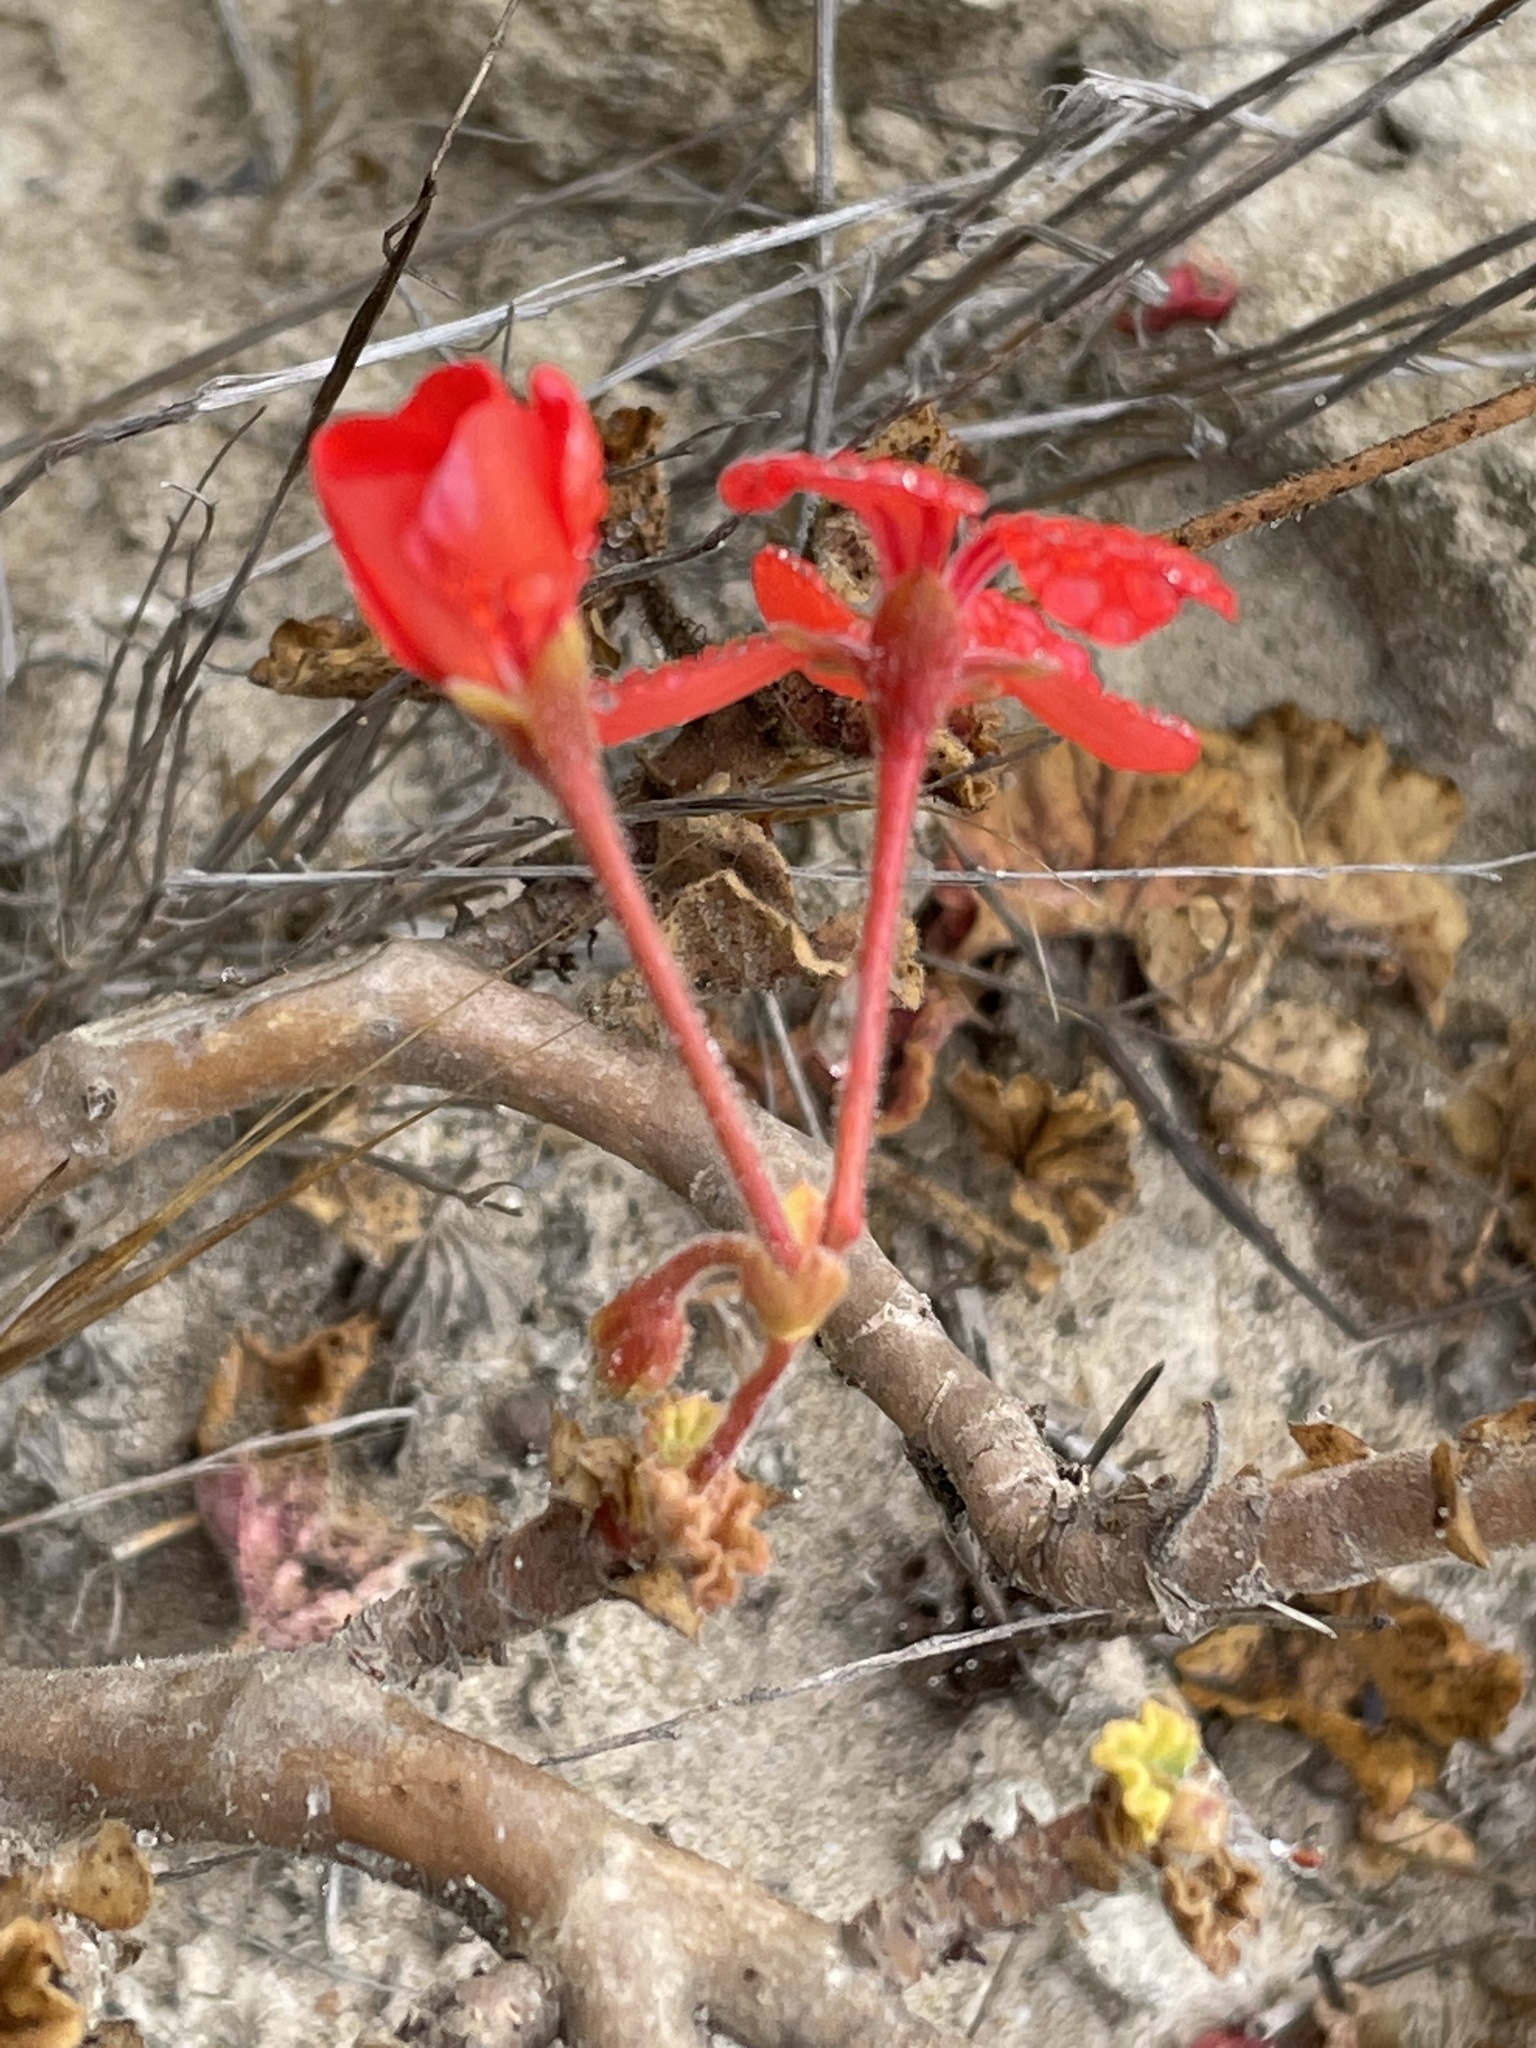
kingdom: Plantae
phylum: Tracheophyta
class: Magnoliopsida
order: Geraniales
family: Geraniaceae
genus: Pelargonium
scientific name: Pelargonium hybridum
